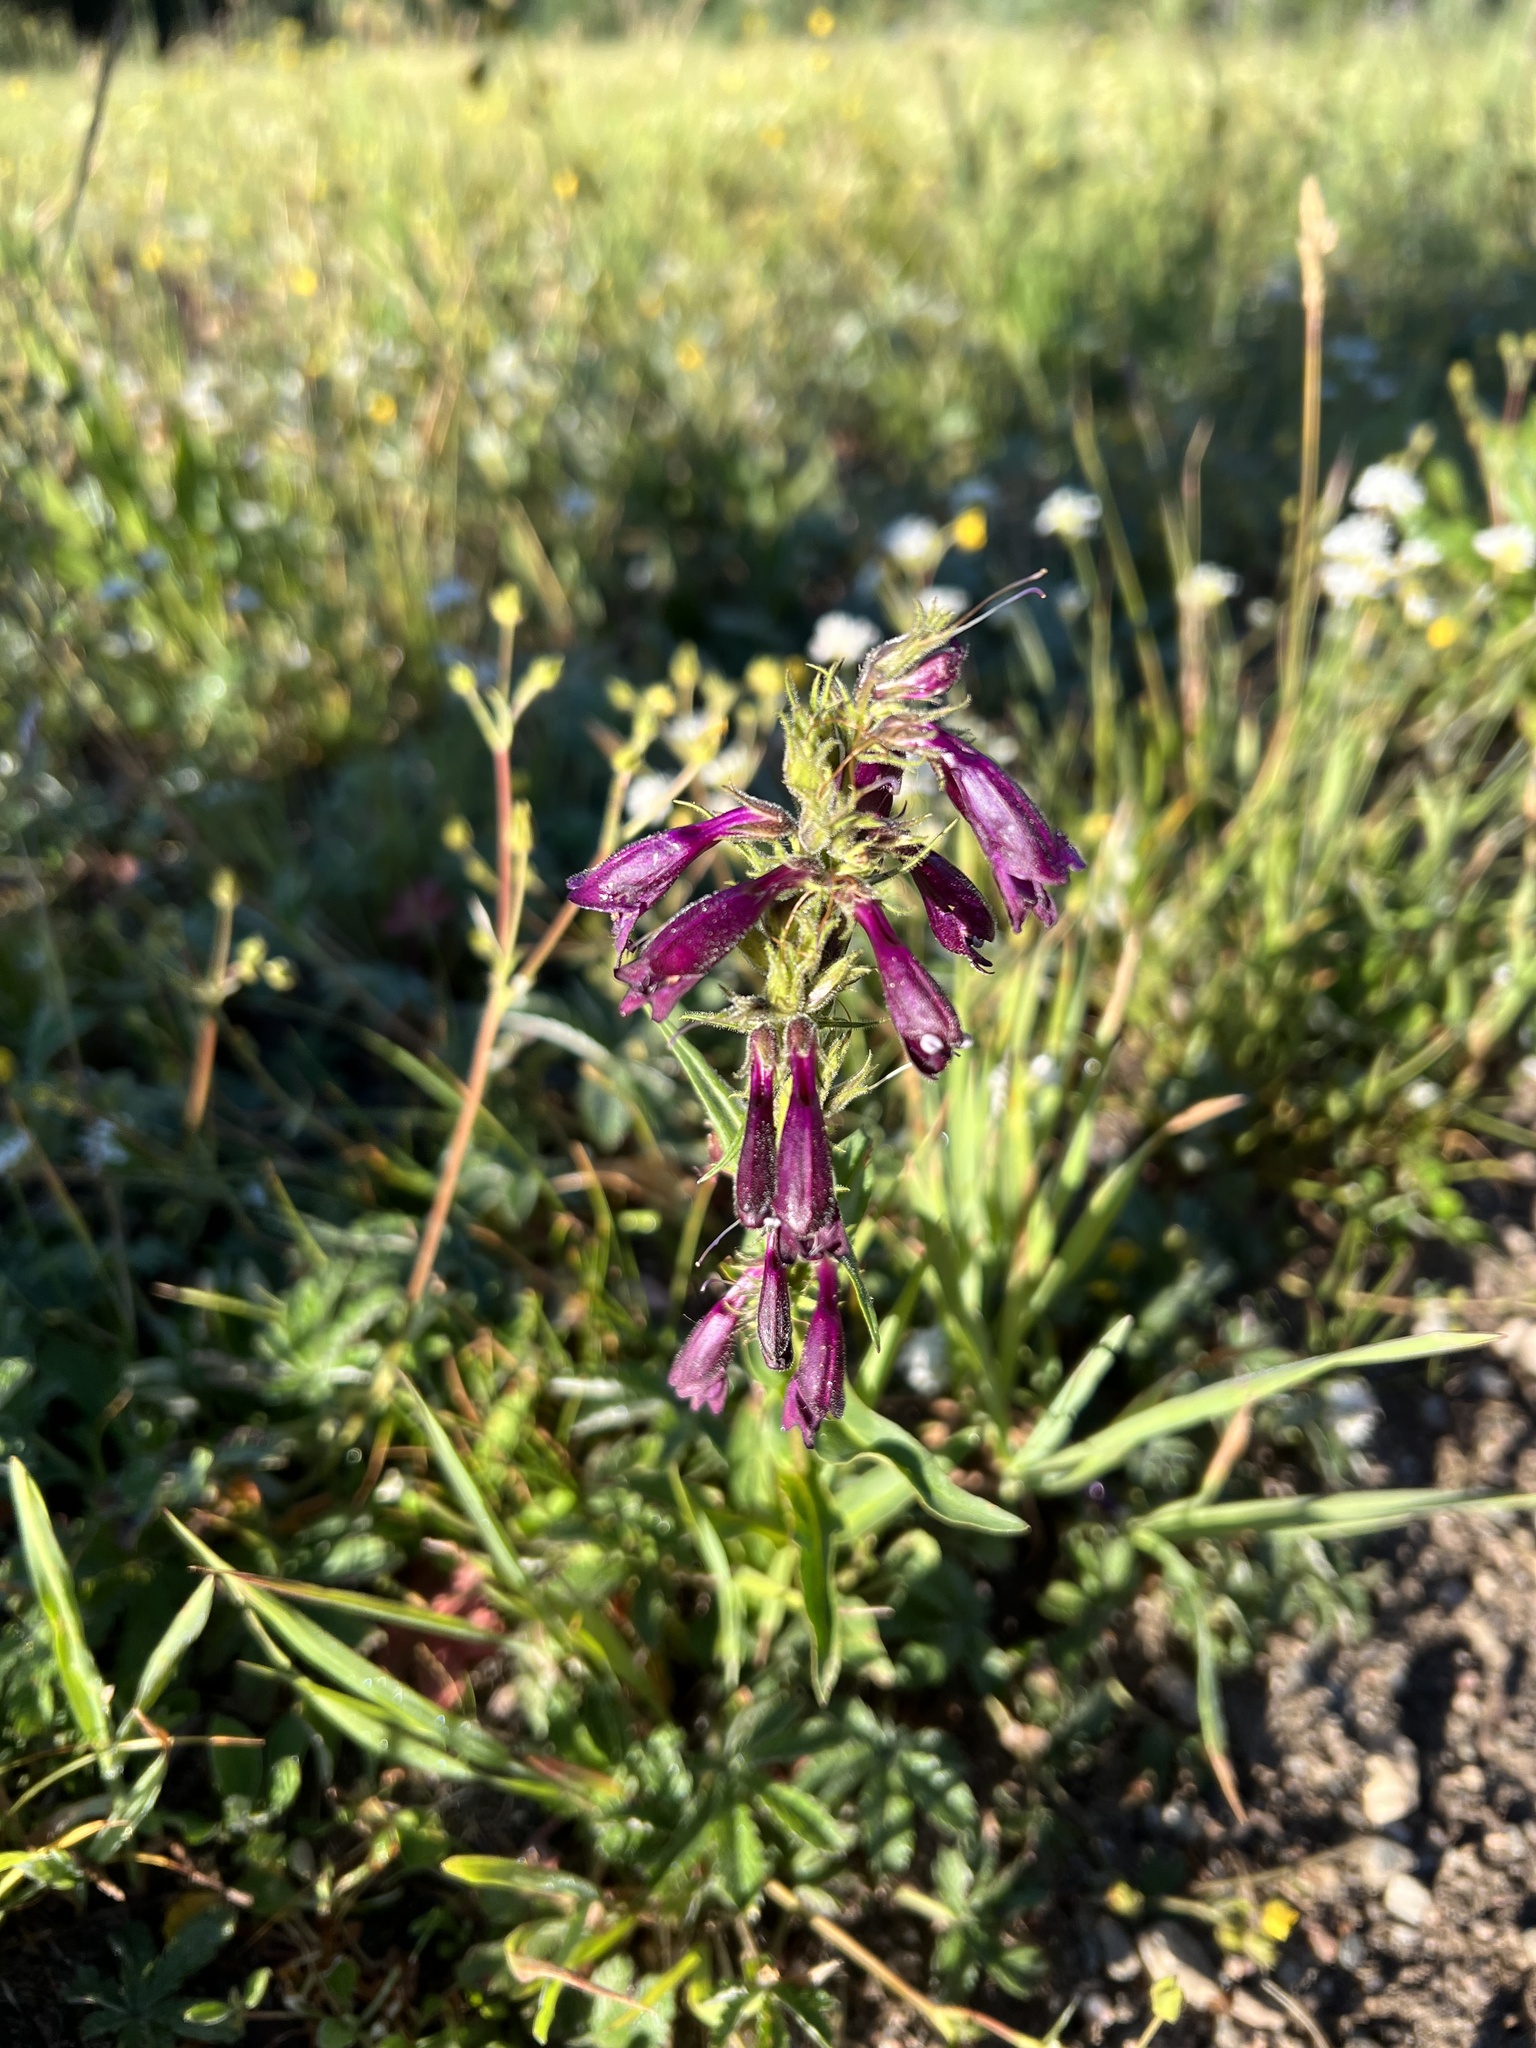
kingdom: Plantae
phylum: Tracheophyta
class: Magnoliopsida
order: Lamiales
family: Plantaginaceae
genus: Penstemon
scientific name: Penstemon whippleanus
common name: Whipple's penstemon
